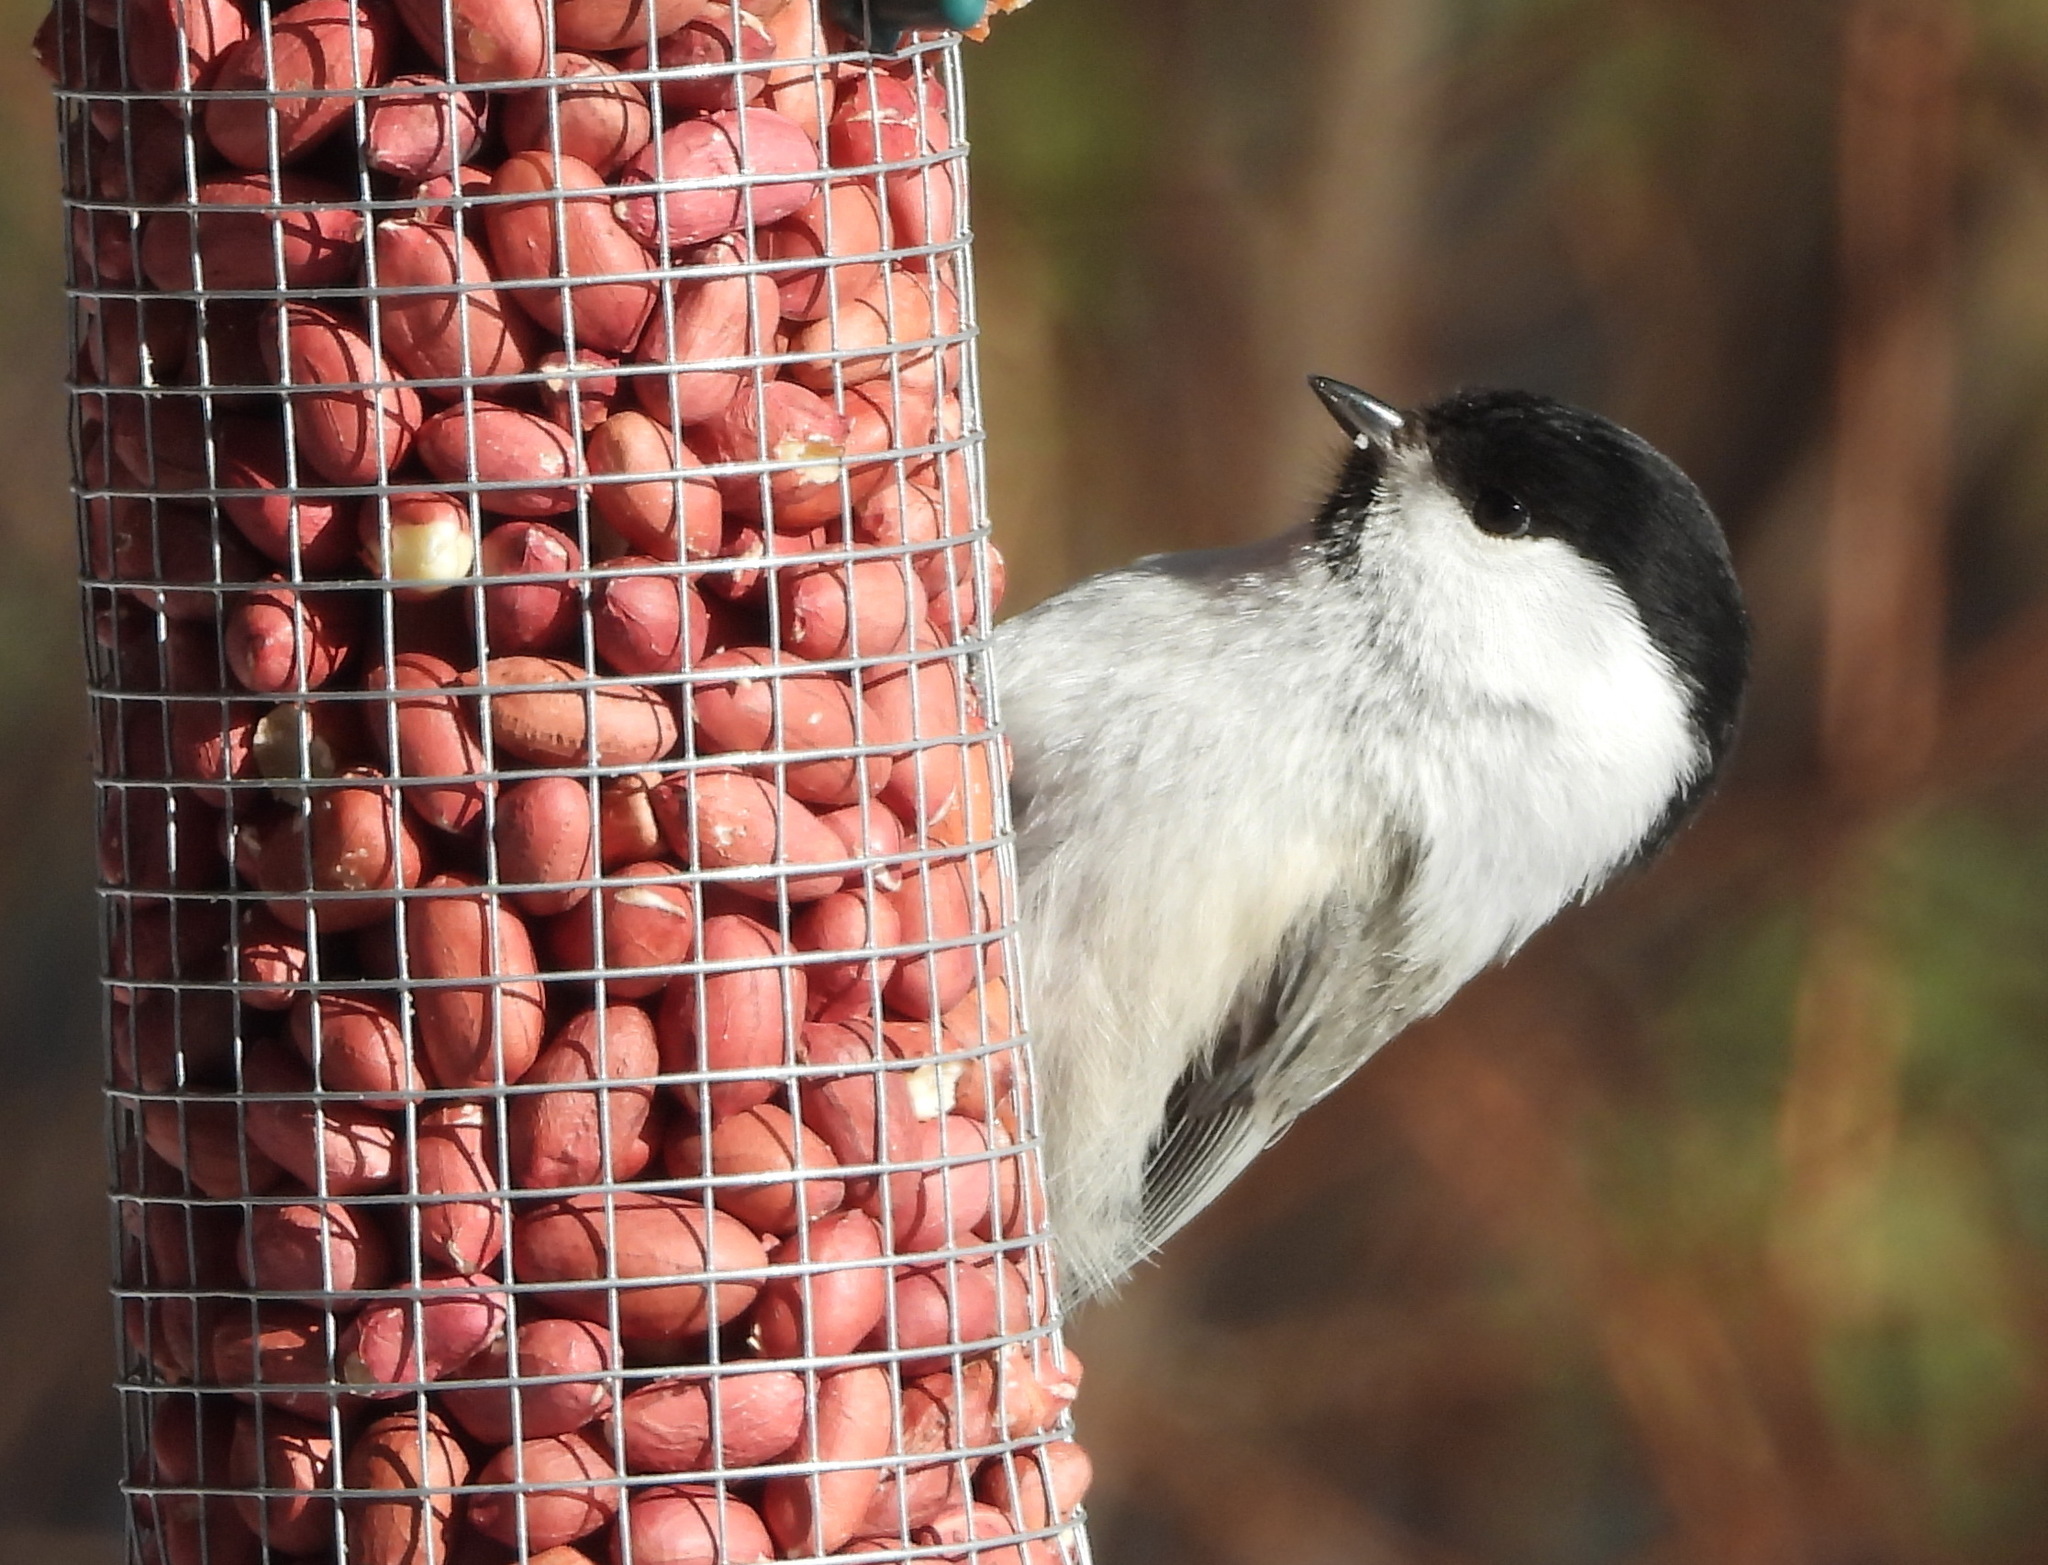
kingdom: Animalia
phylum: Chordata
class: Aves
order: Passeriformes
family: Paridae
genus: Poecile
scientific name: Poecile montanus
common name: Willow tit
